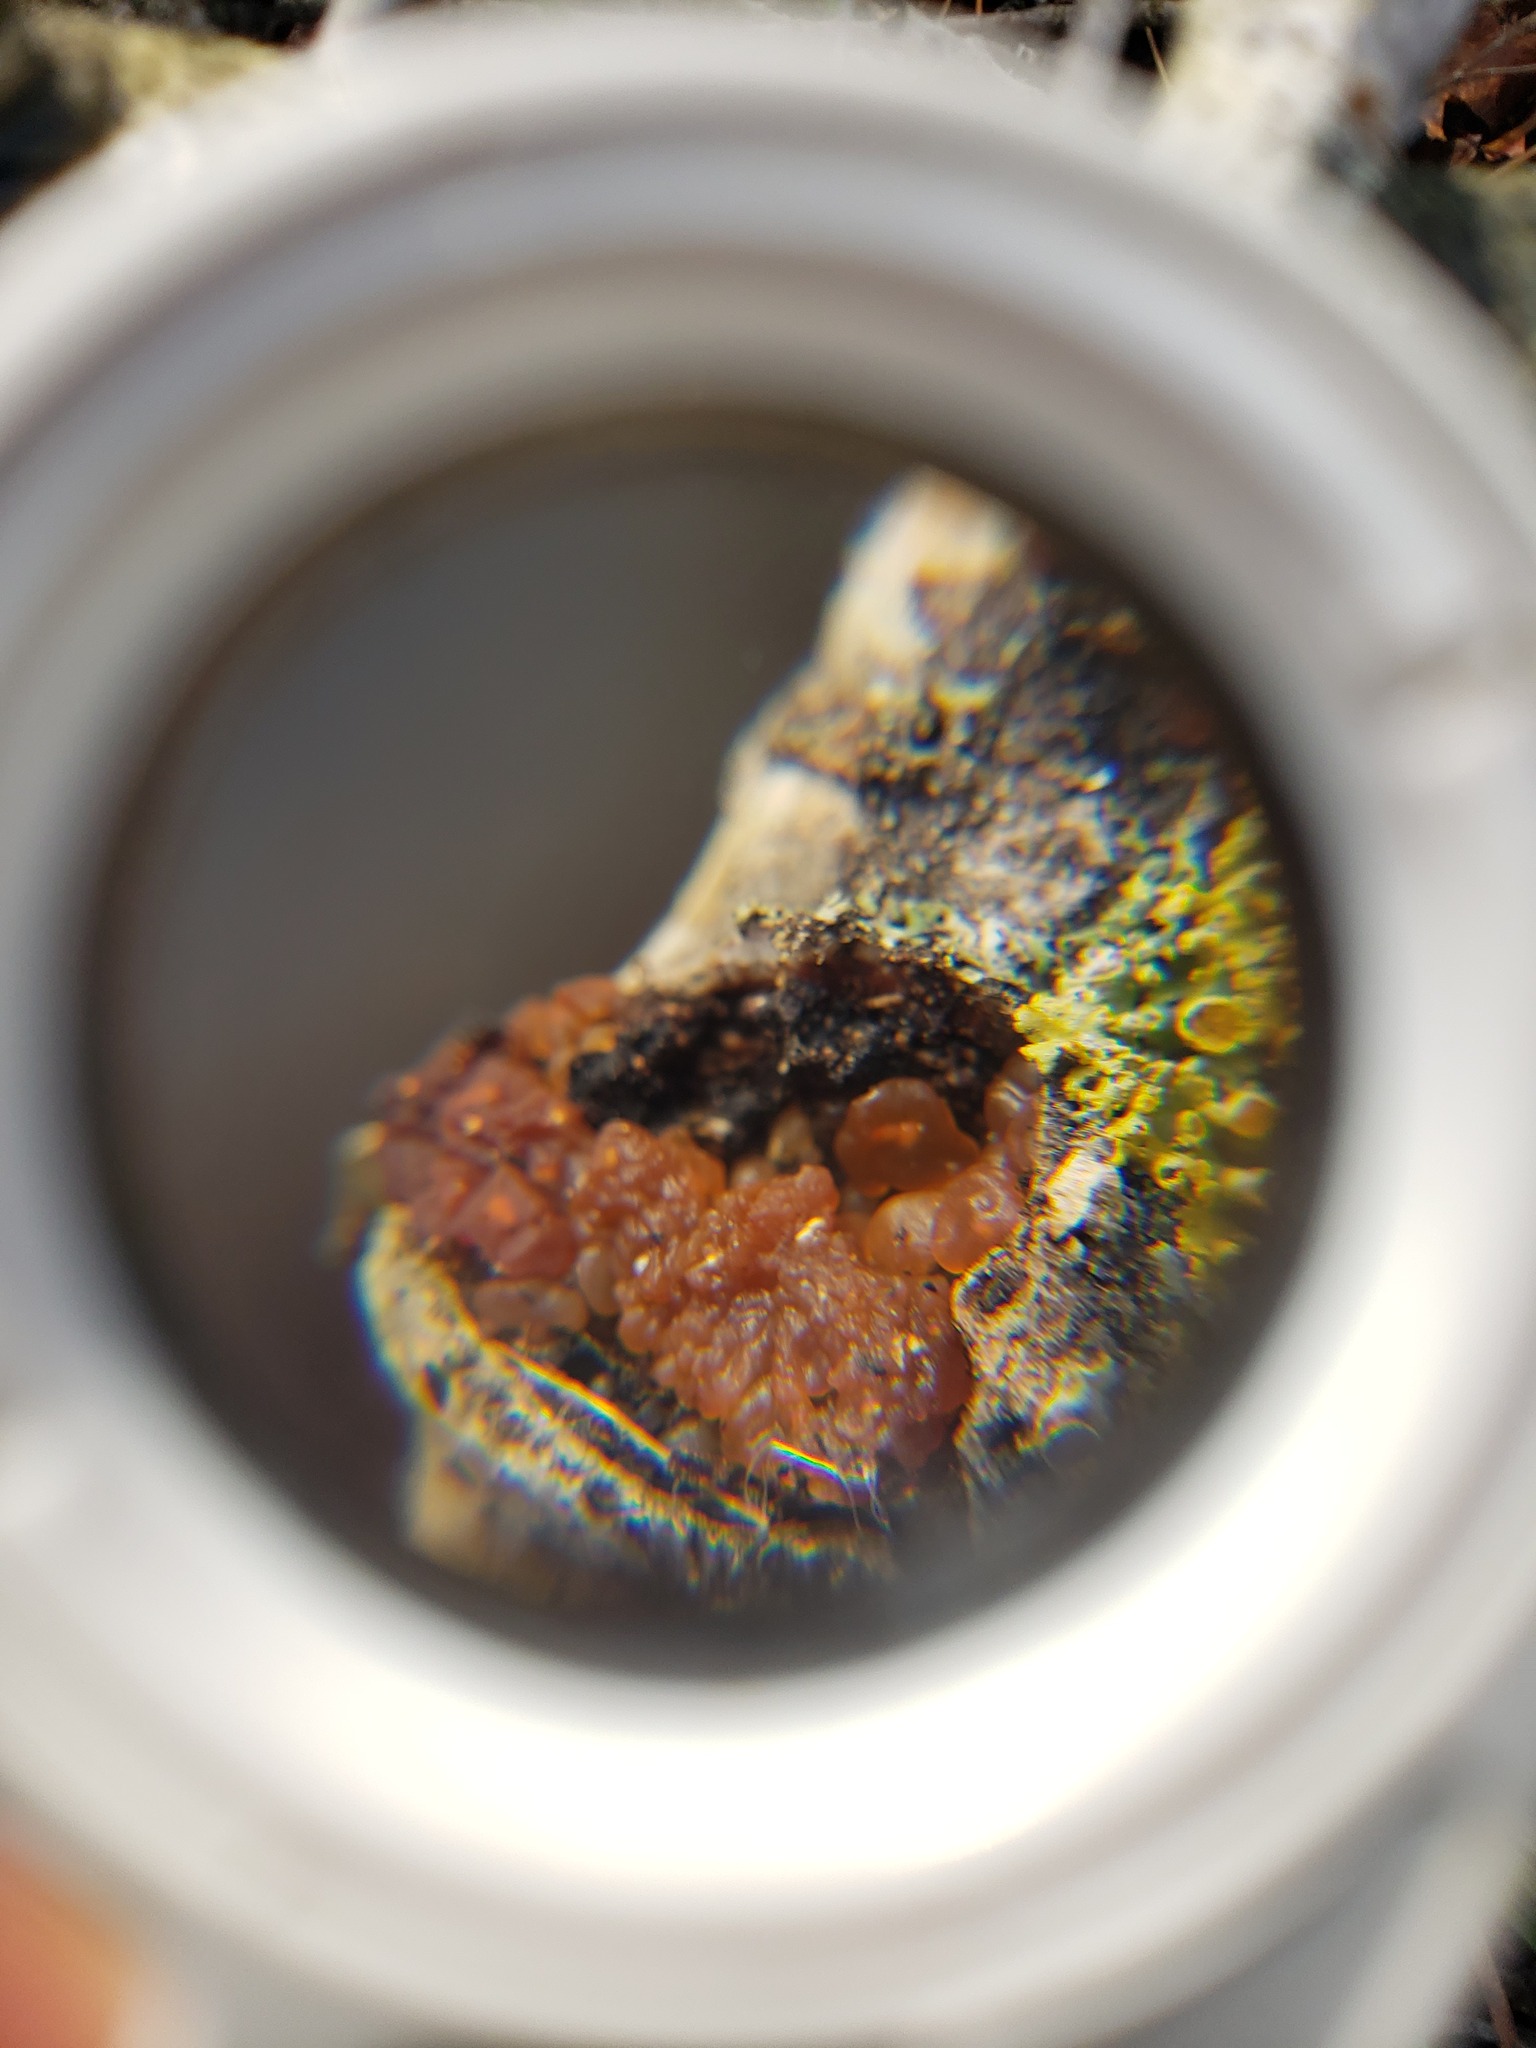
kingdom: Fungi
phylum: Basidiomycota
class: Agaricomycetes
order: Auriculariales
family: Hyaloriaceae
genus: Myxarium
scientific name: Myxarium nucleatum
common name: Crystal brain fungus
